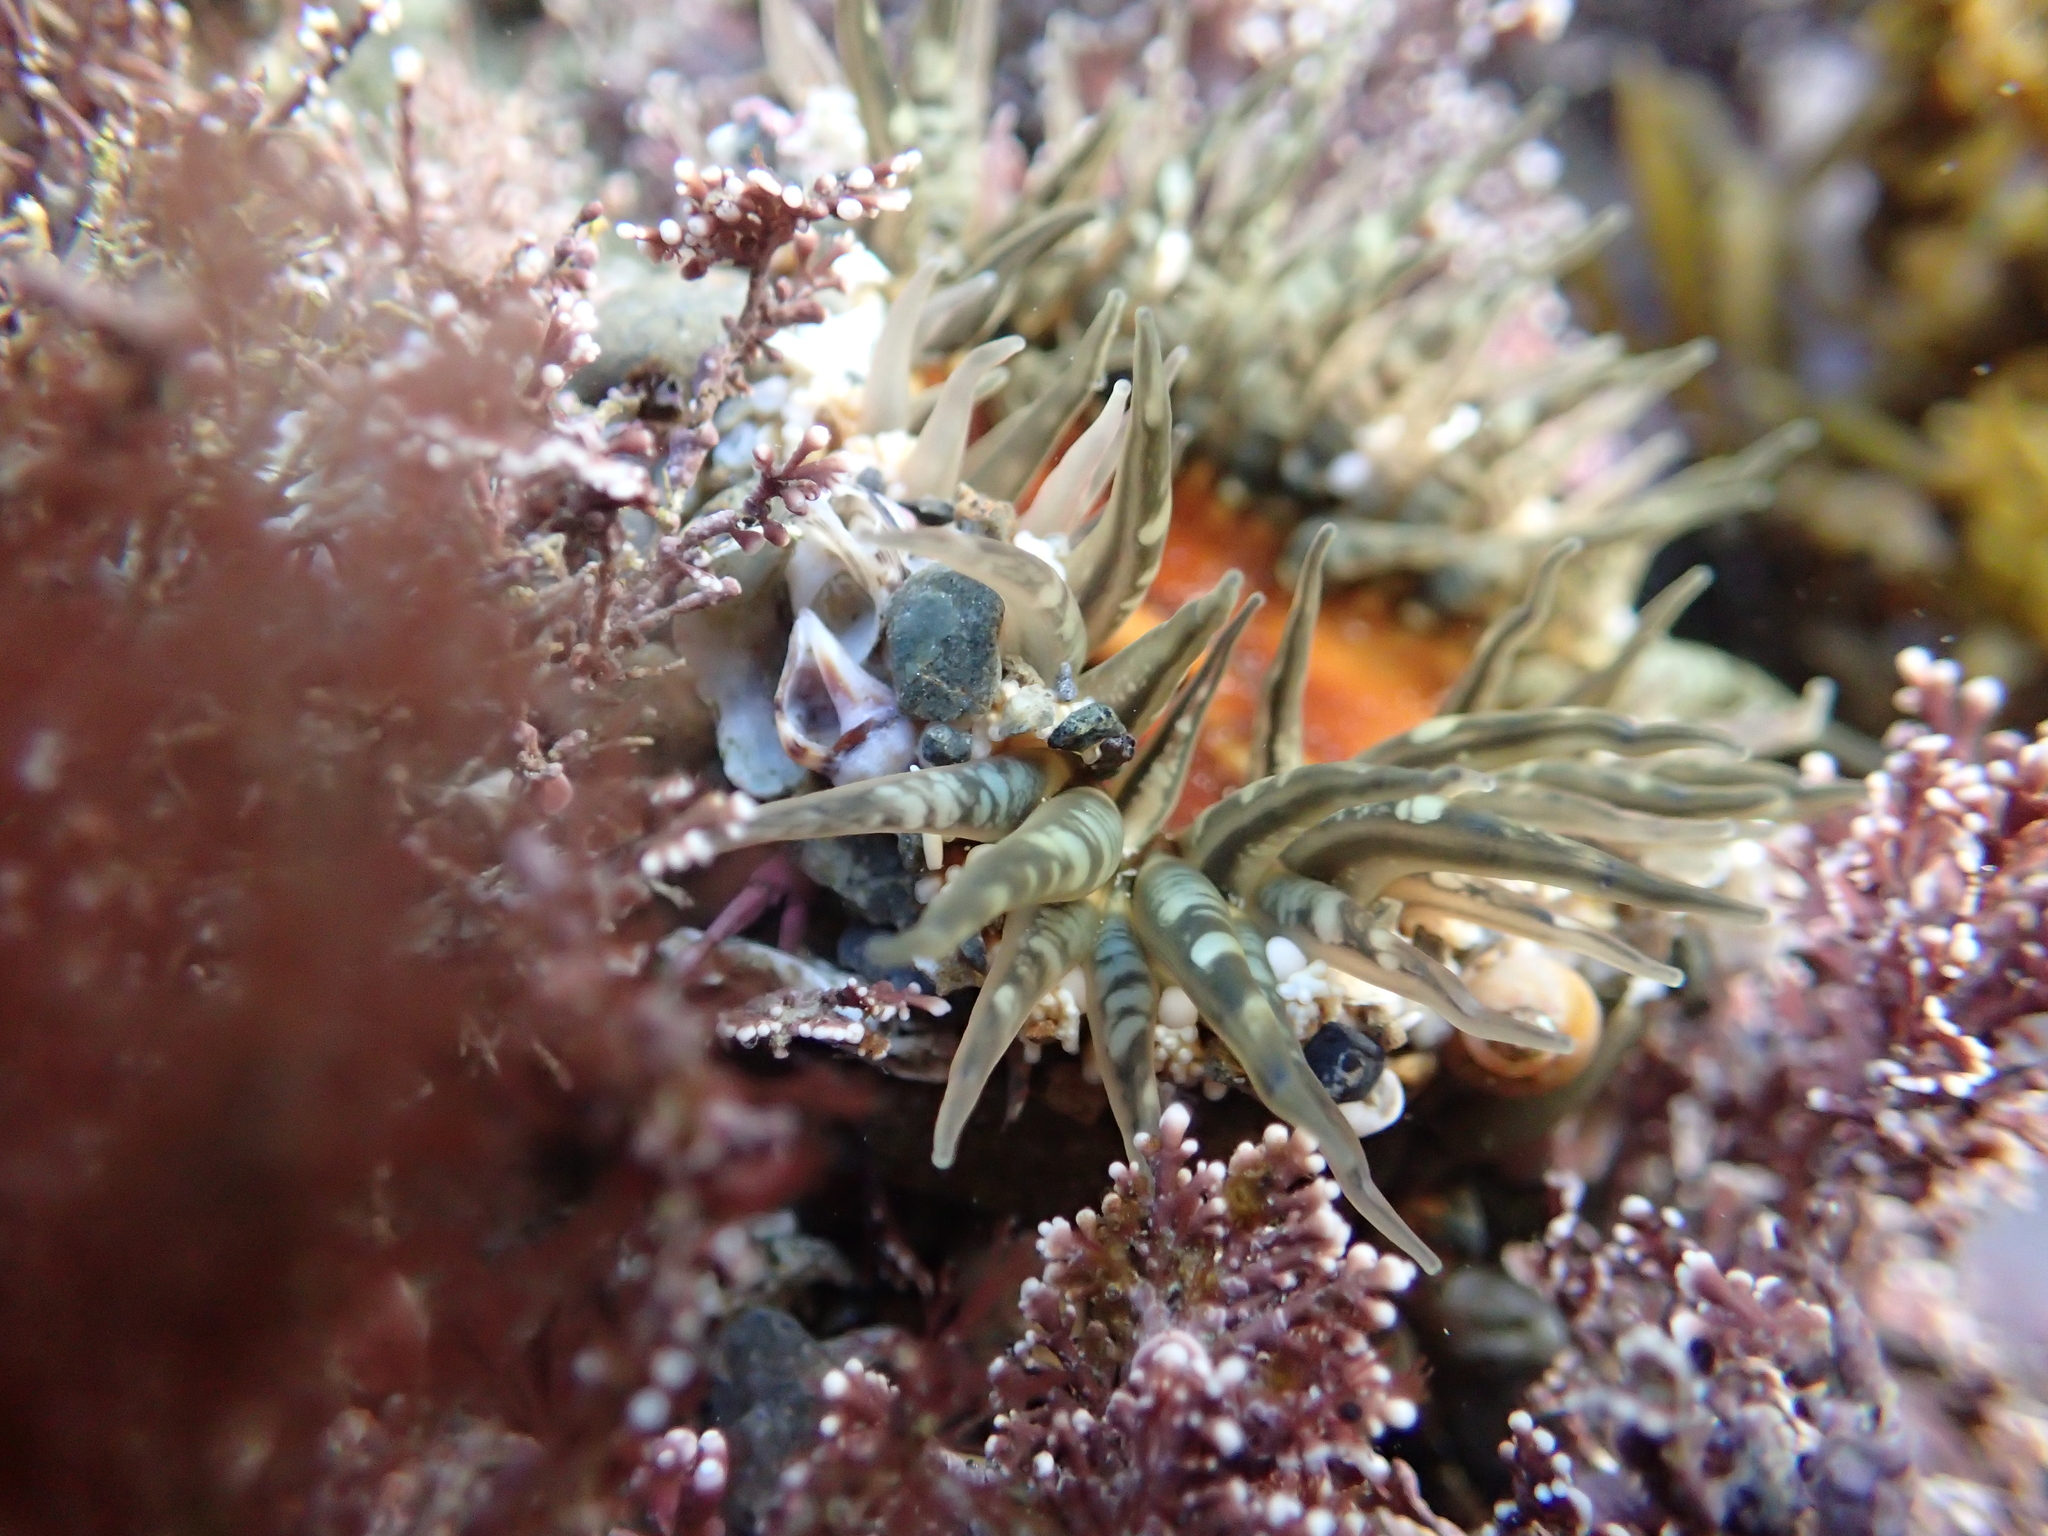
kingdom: Animalia
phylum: Cnidaria
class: Anthozoa
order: Actiniaria
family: Actiniidae
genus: Oulactis
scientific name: Oulactis muscosa
